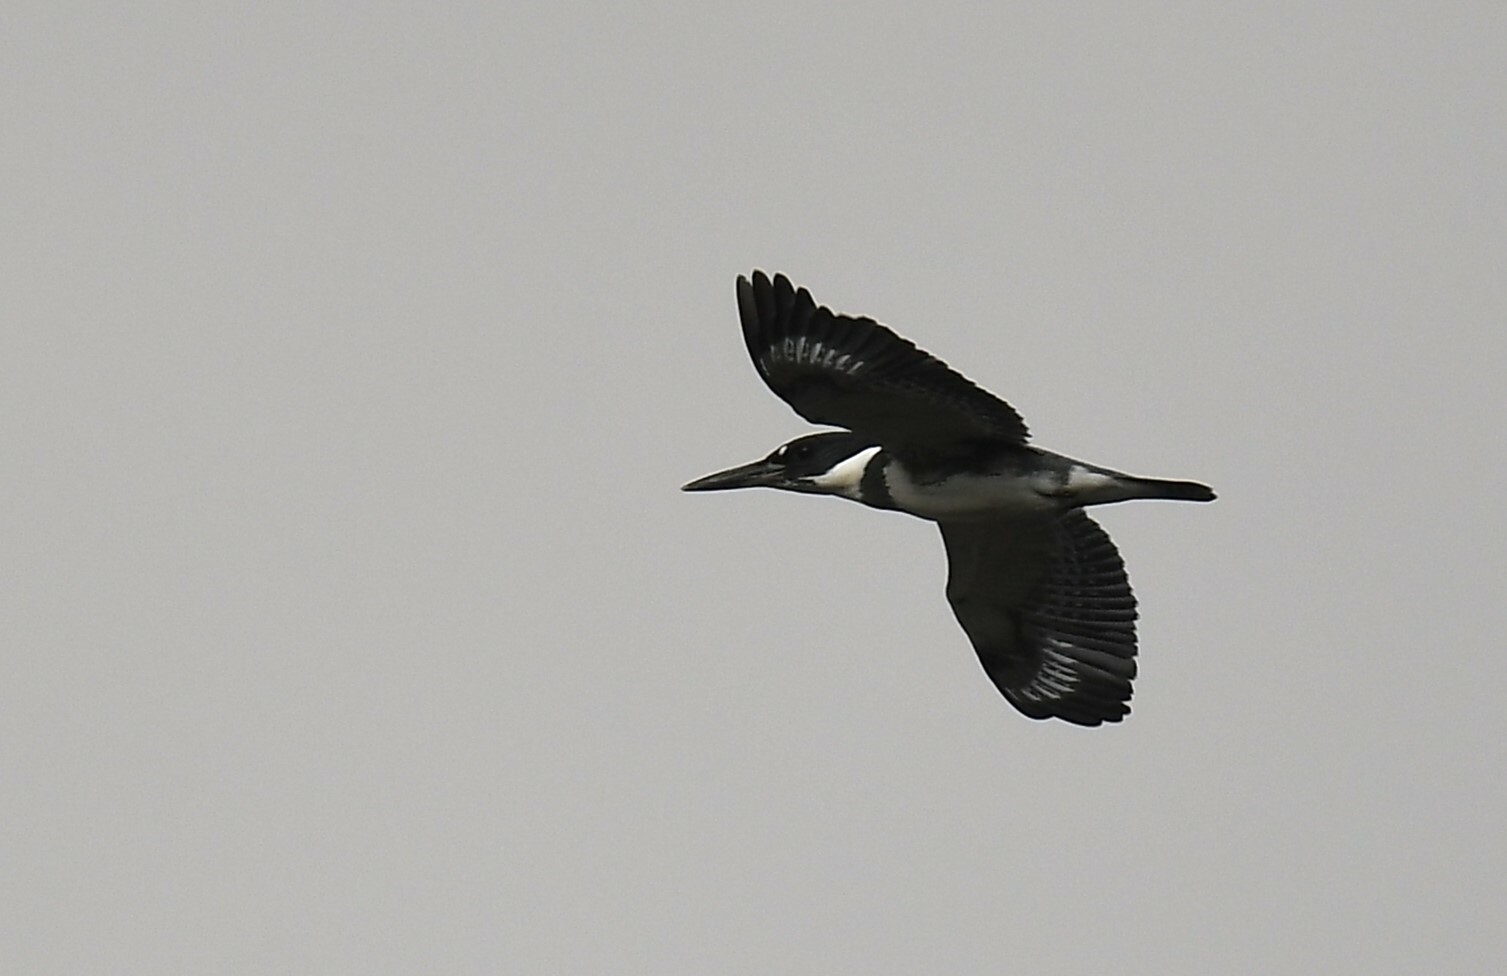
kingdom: Animalia
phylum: Chordata
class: Aves
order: Coraciiformes
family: Alcedinidae
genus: Megaceryle
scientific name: Megaceryle alcyon
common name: Belted kingfisher
